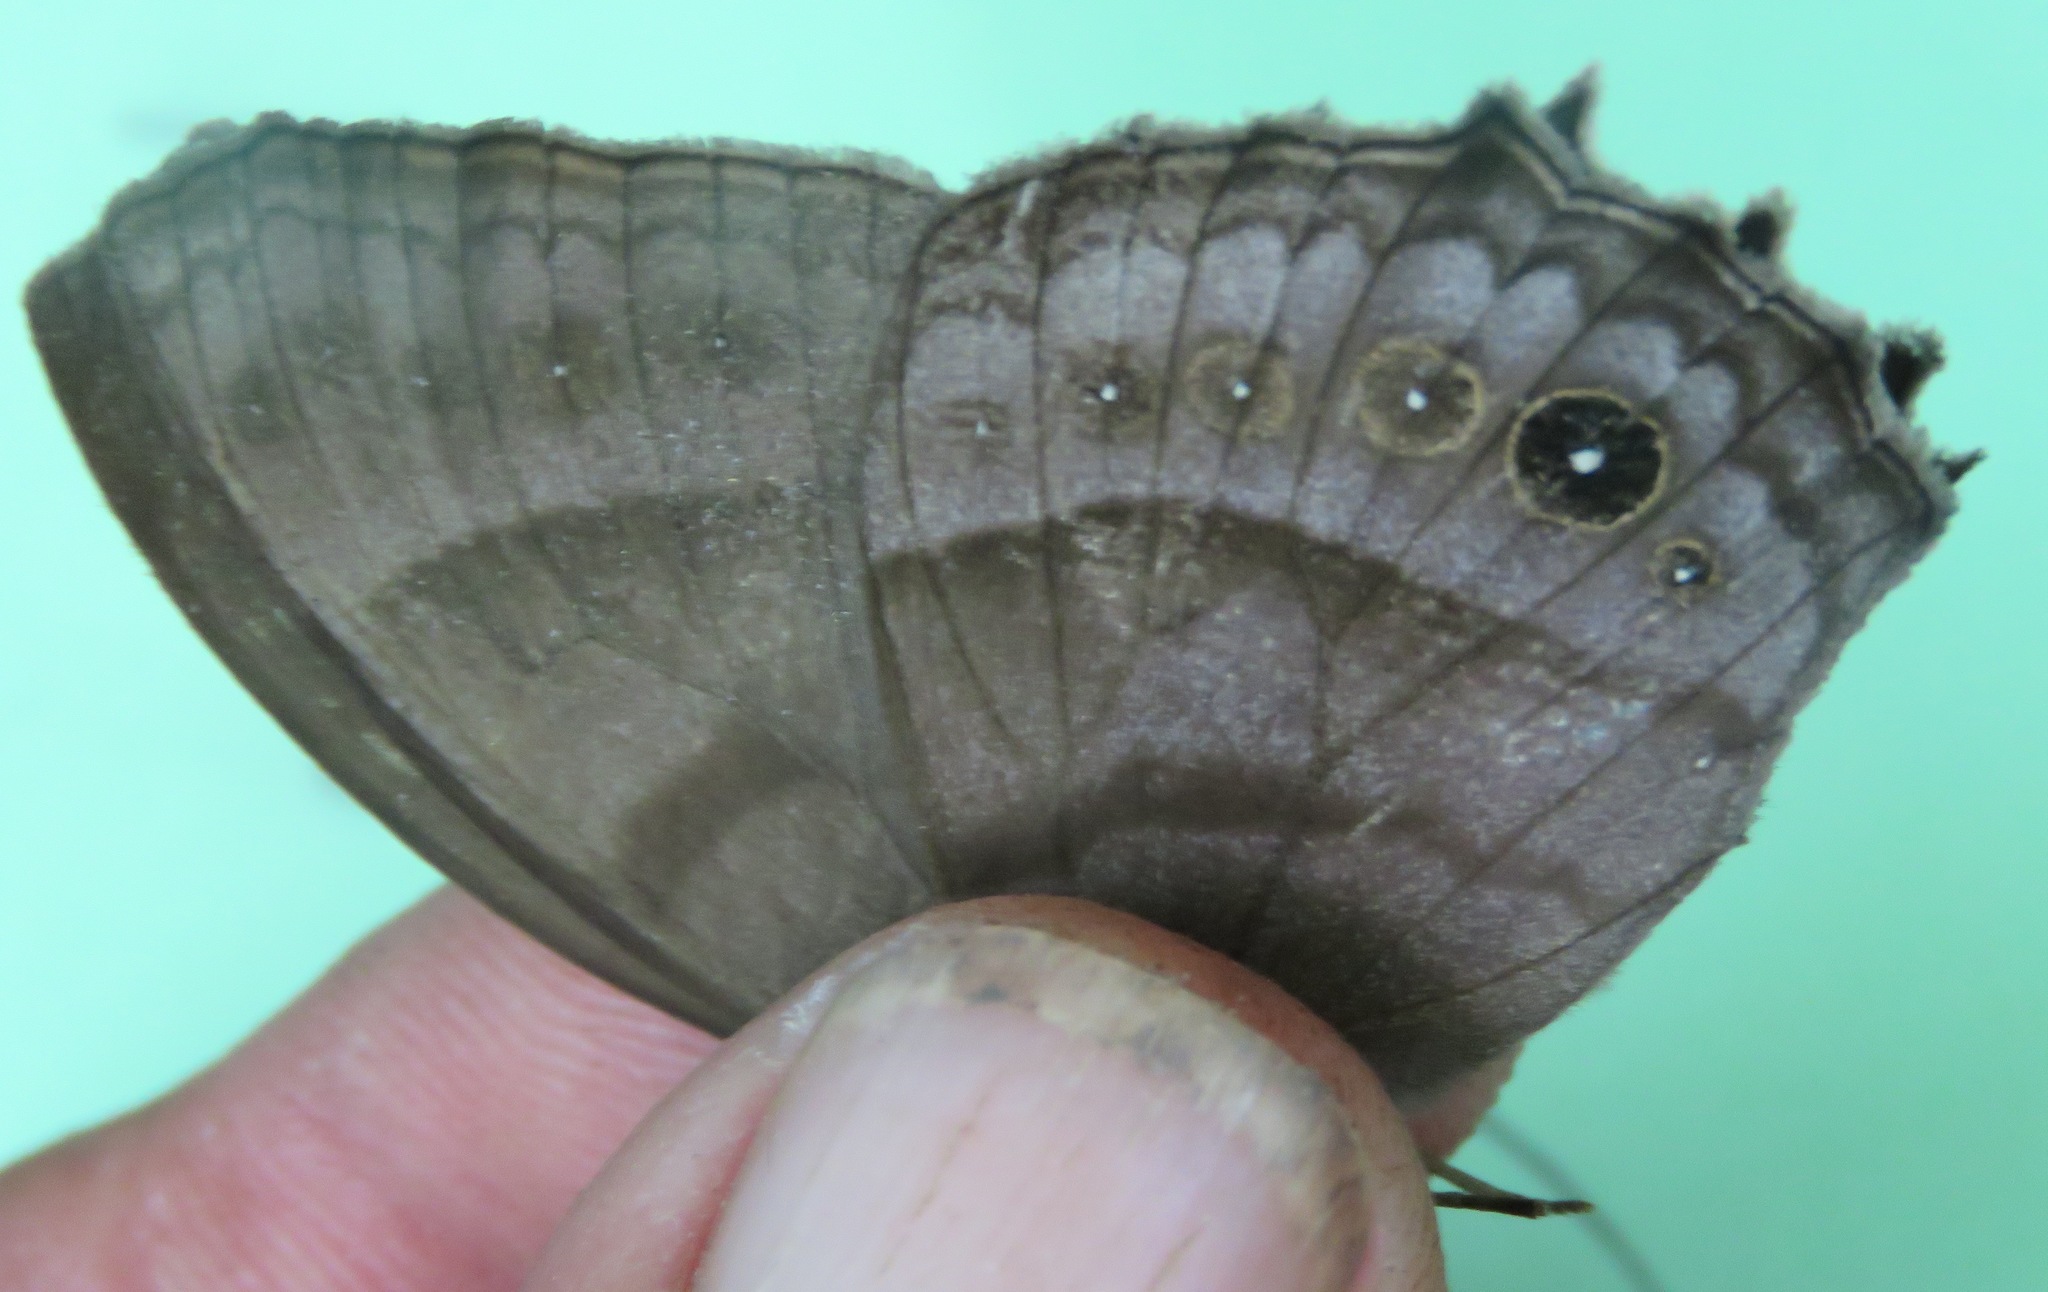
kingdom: Animalia
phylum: Arthropoda
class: Insecta
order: Lepidoptera
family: Nymphalidae
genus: Taygetis
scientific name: Taygetis inconspicua
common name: Inconspicuous satyr
